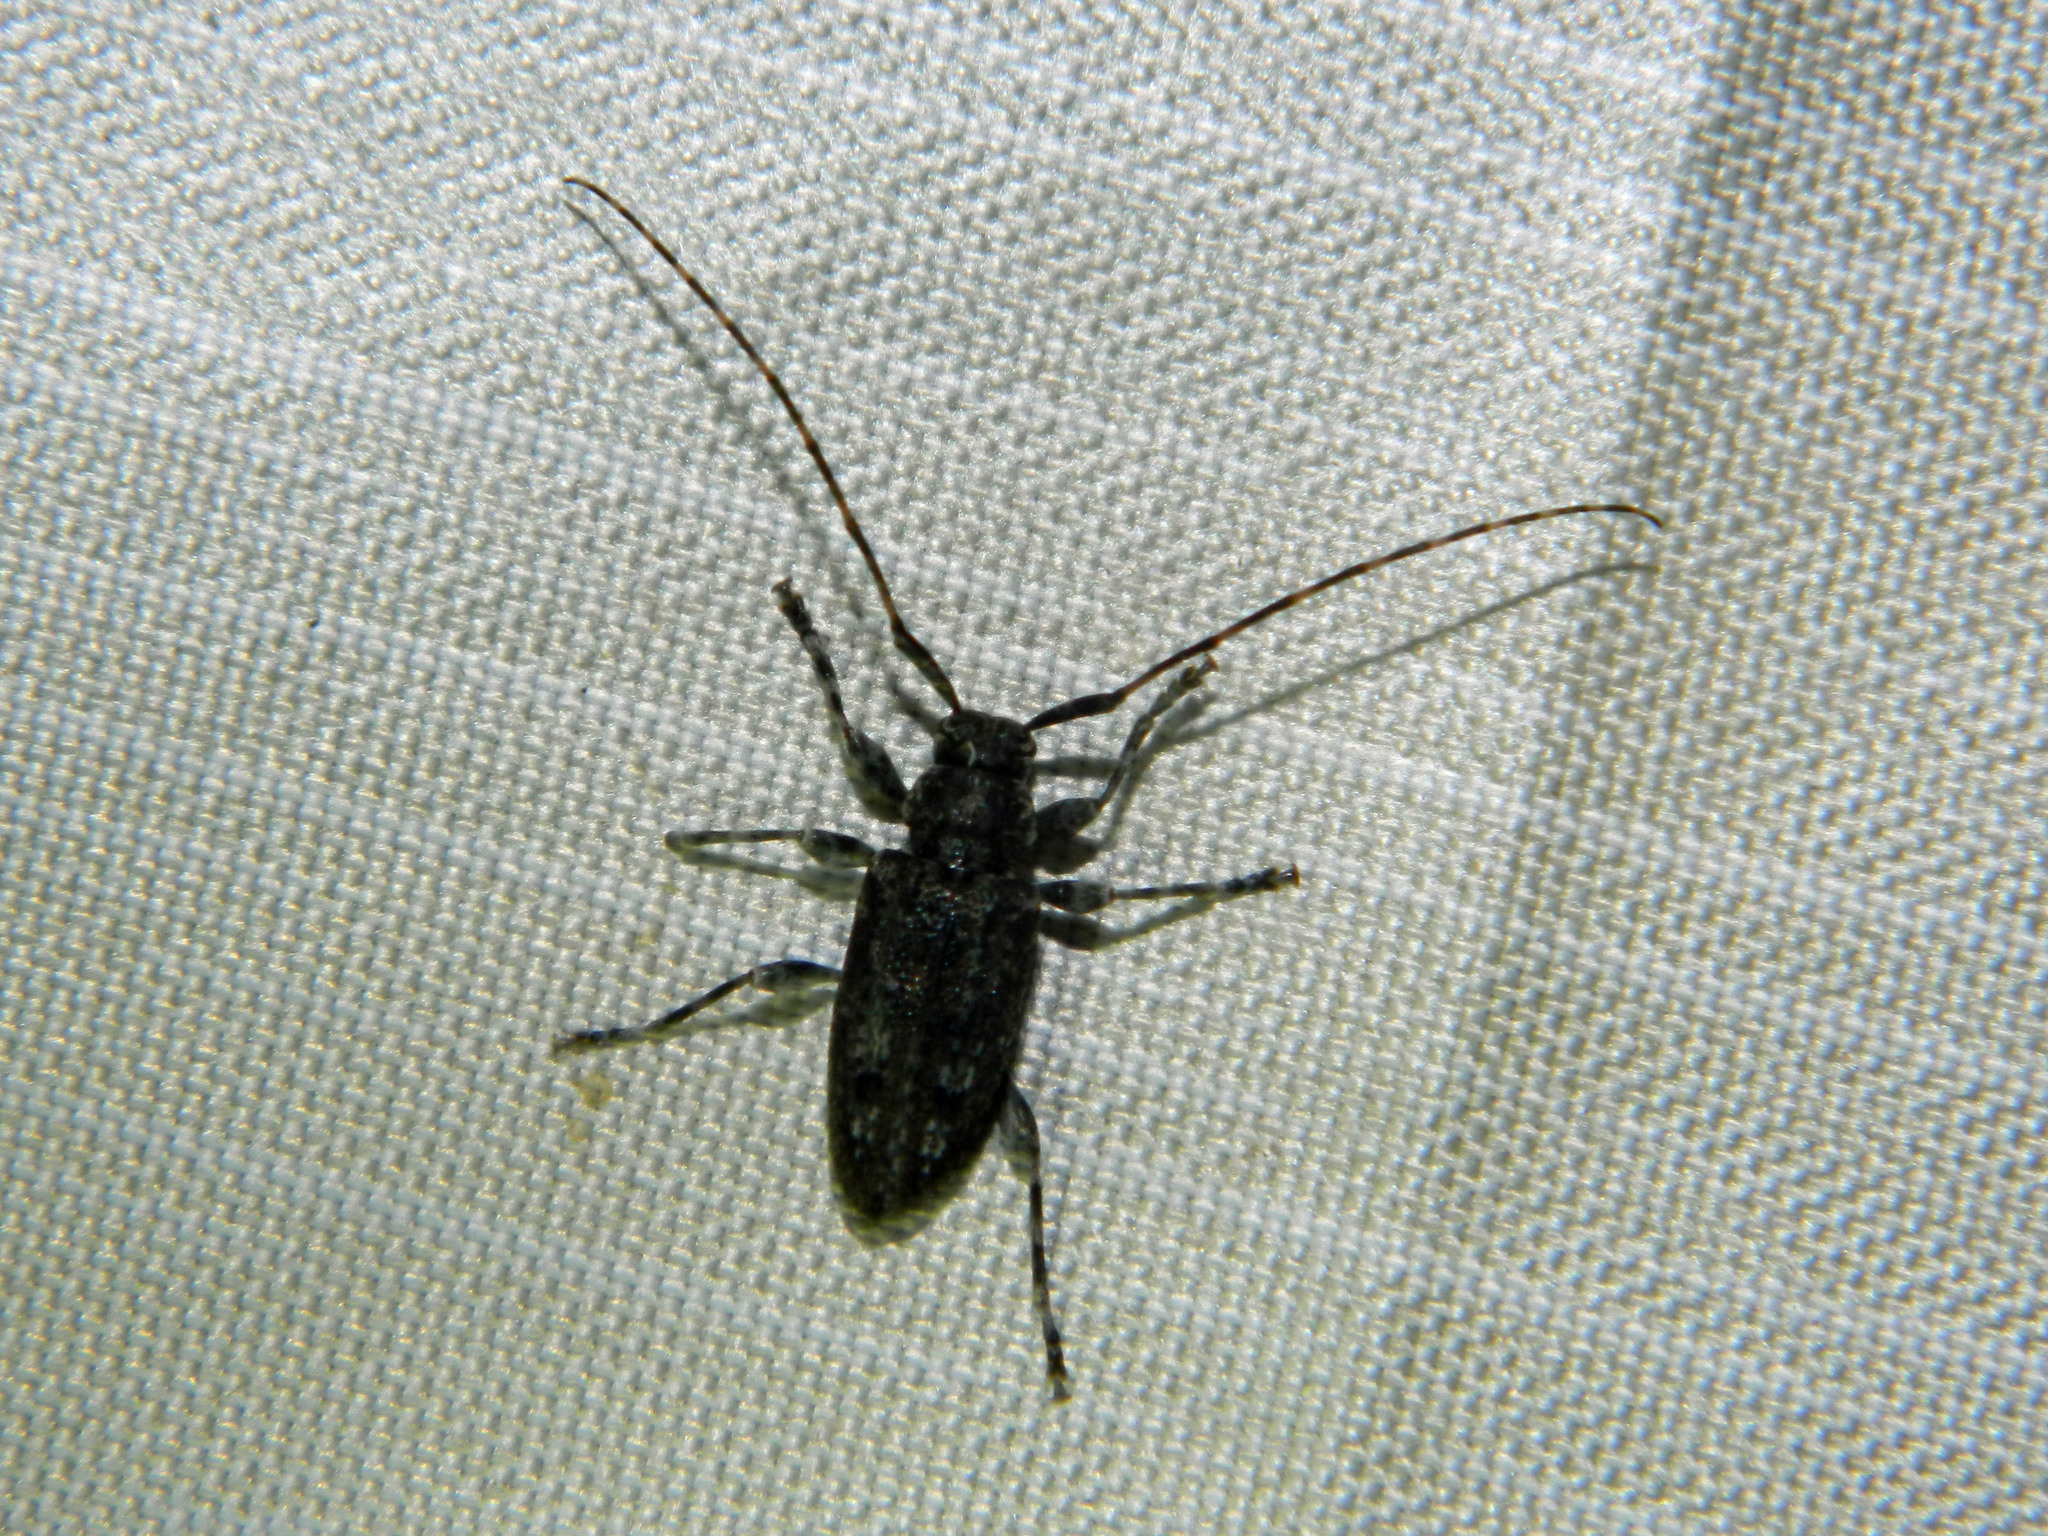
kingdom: Animalia
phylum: Arthropoda
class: Insecta
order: Coleoptera
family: Cerambycidae
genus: Astyleiopus
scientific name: Astyleiopus variegatus
